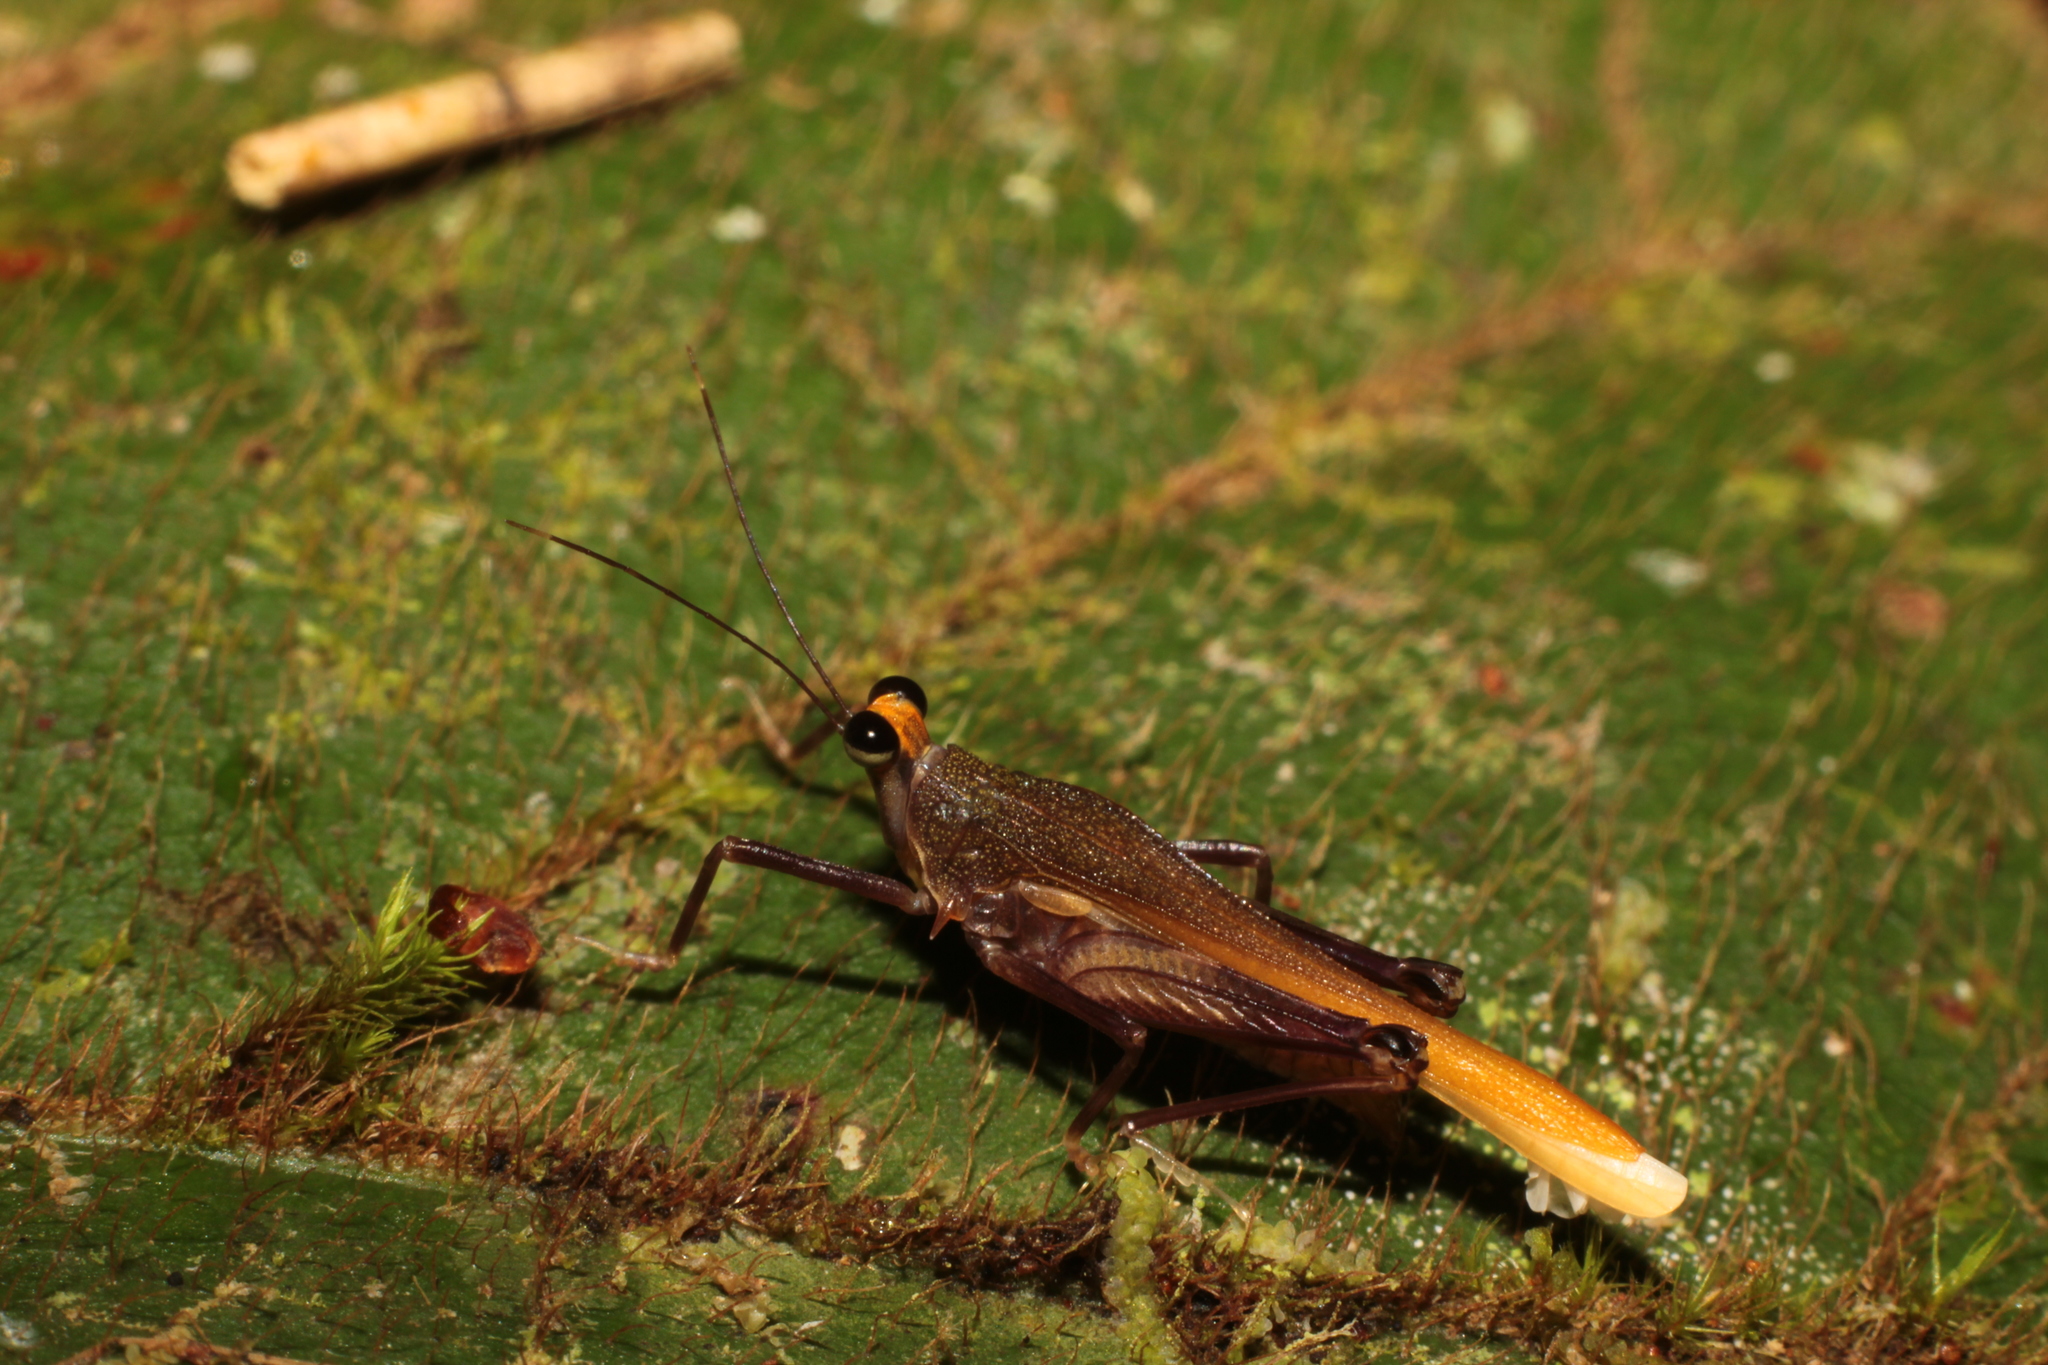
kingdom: Animalia
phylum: Arthropoda
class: Insecta
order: Orthoptera
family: Tetrigidae
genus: Arexion
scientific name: Arexion suavis
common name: Redneck pygmy grasshopper
